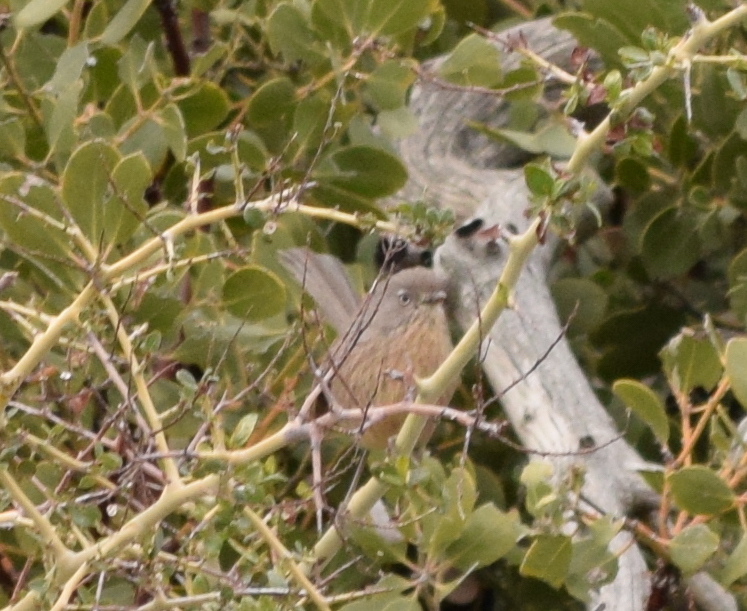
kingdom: Animalia
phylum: Chordata
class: Aves
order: Passeriformes
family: Sylviidae
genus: Chamaea
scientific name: Chamaea fasciata
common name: Wrentit
